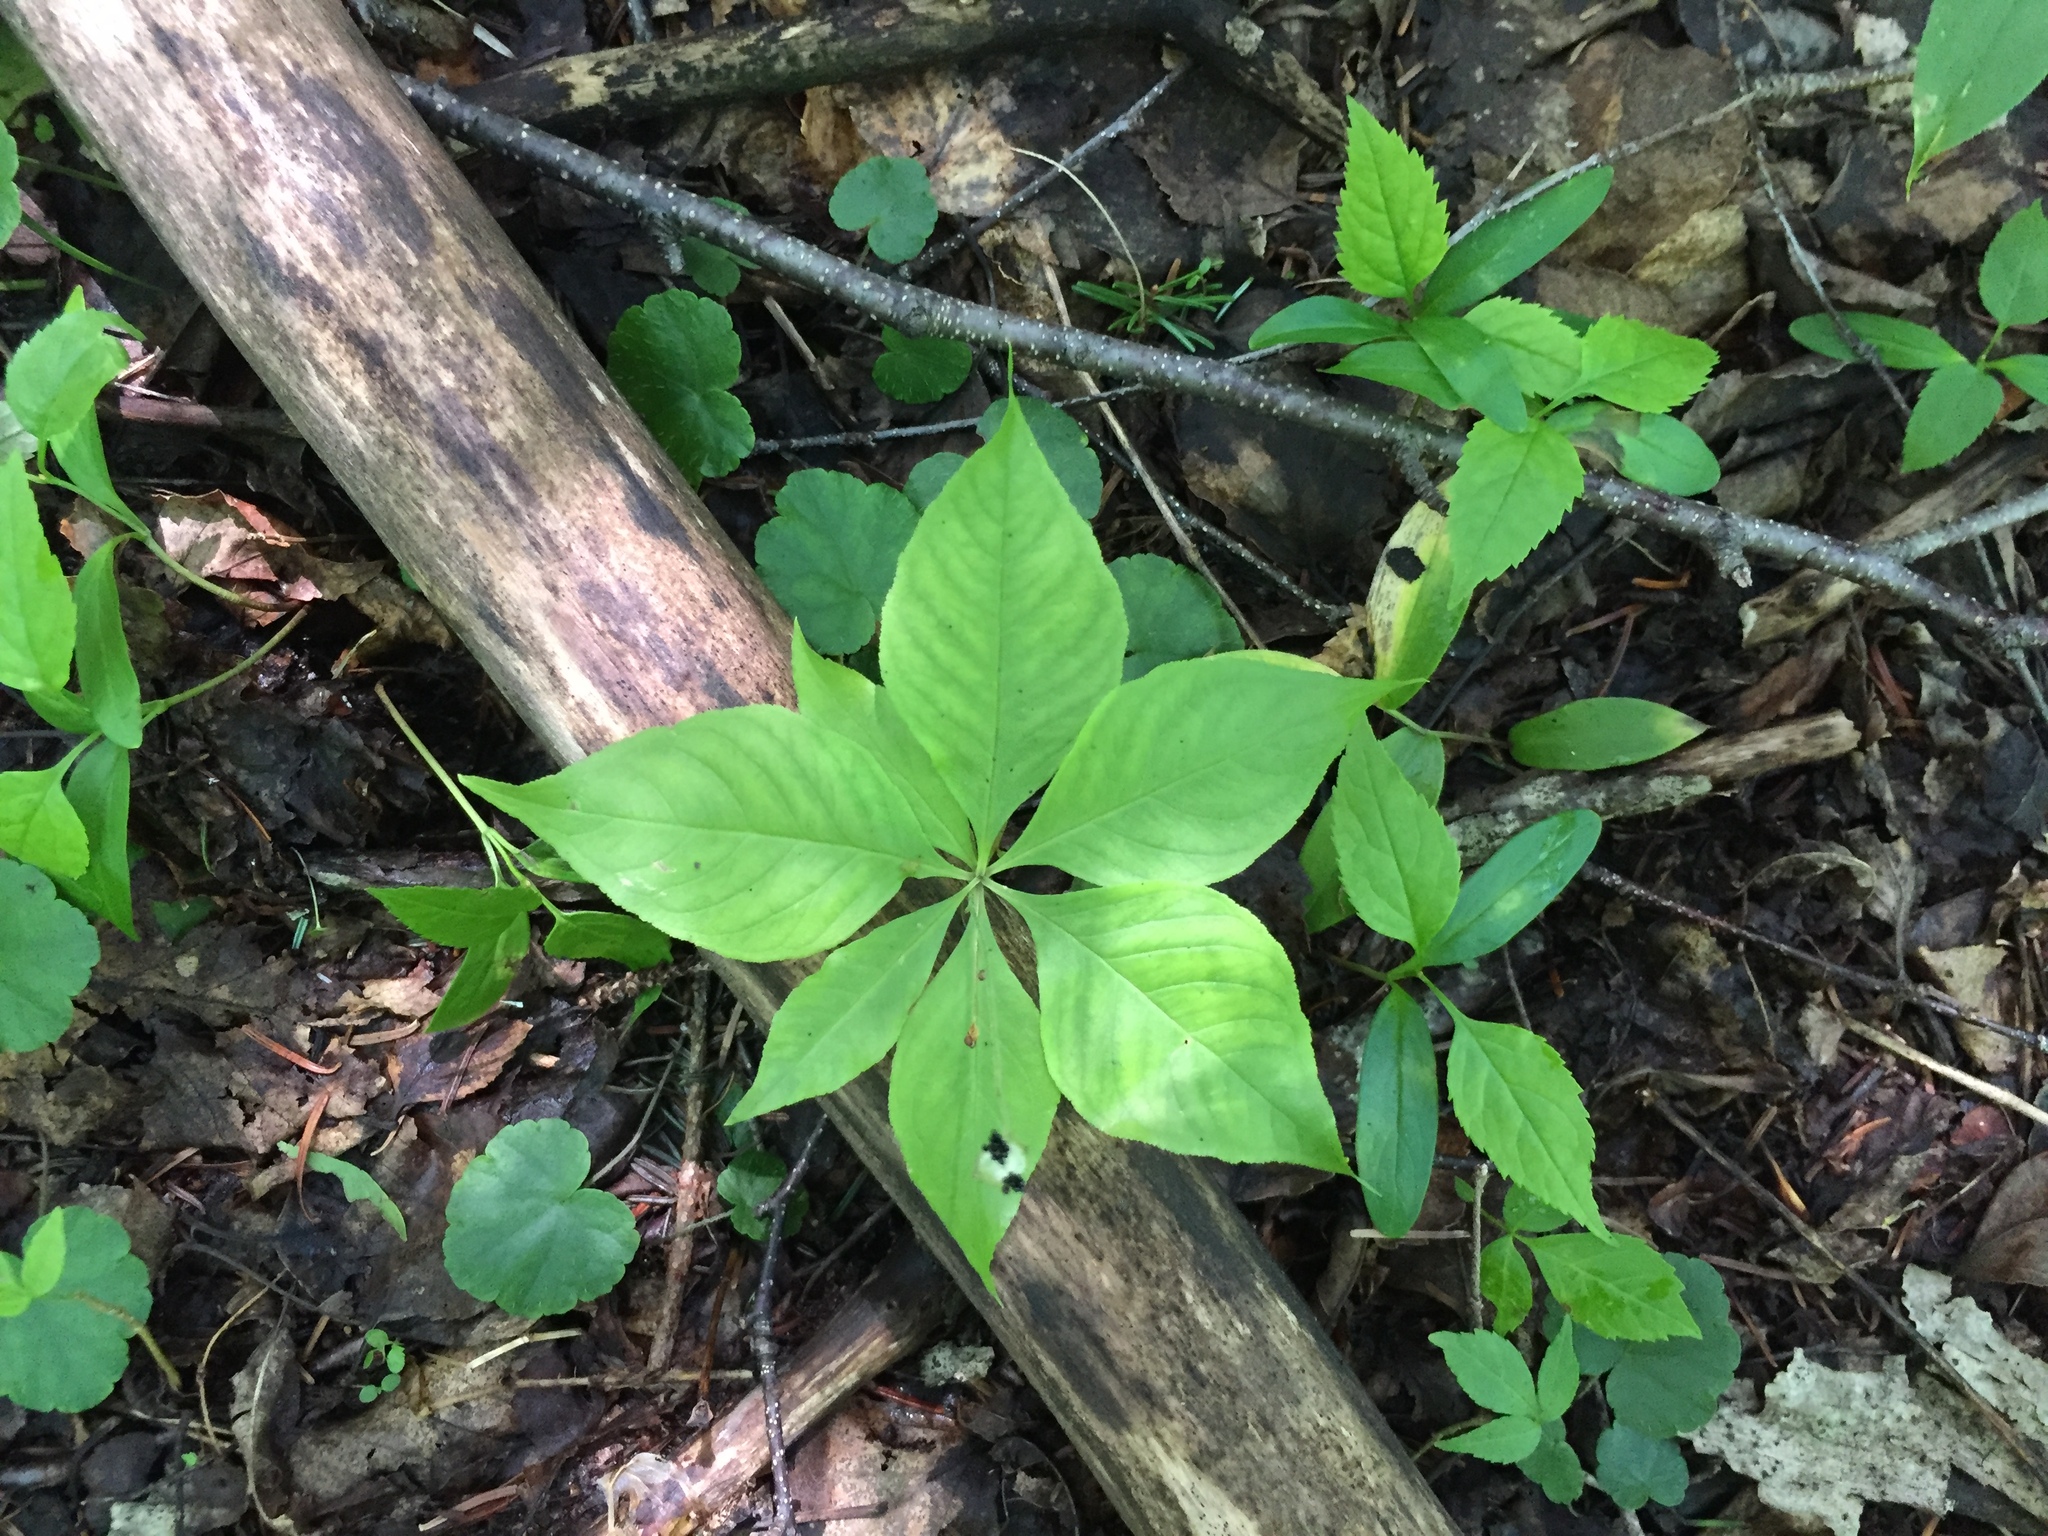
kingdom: Plantae
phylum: Tracheophyta
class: Magnoliopsida
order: Ericales
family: Primulaceae
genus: Lysimachia
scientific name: Lysimachia borealis
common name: American starflower
